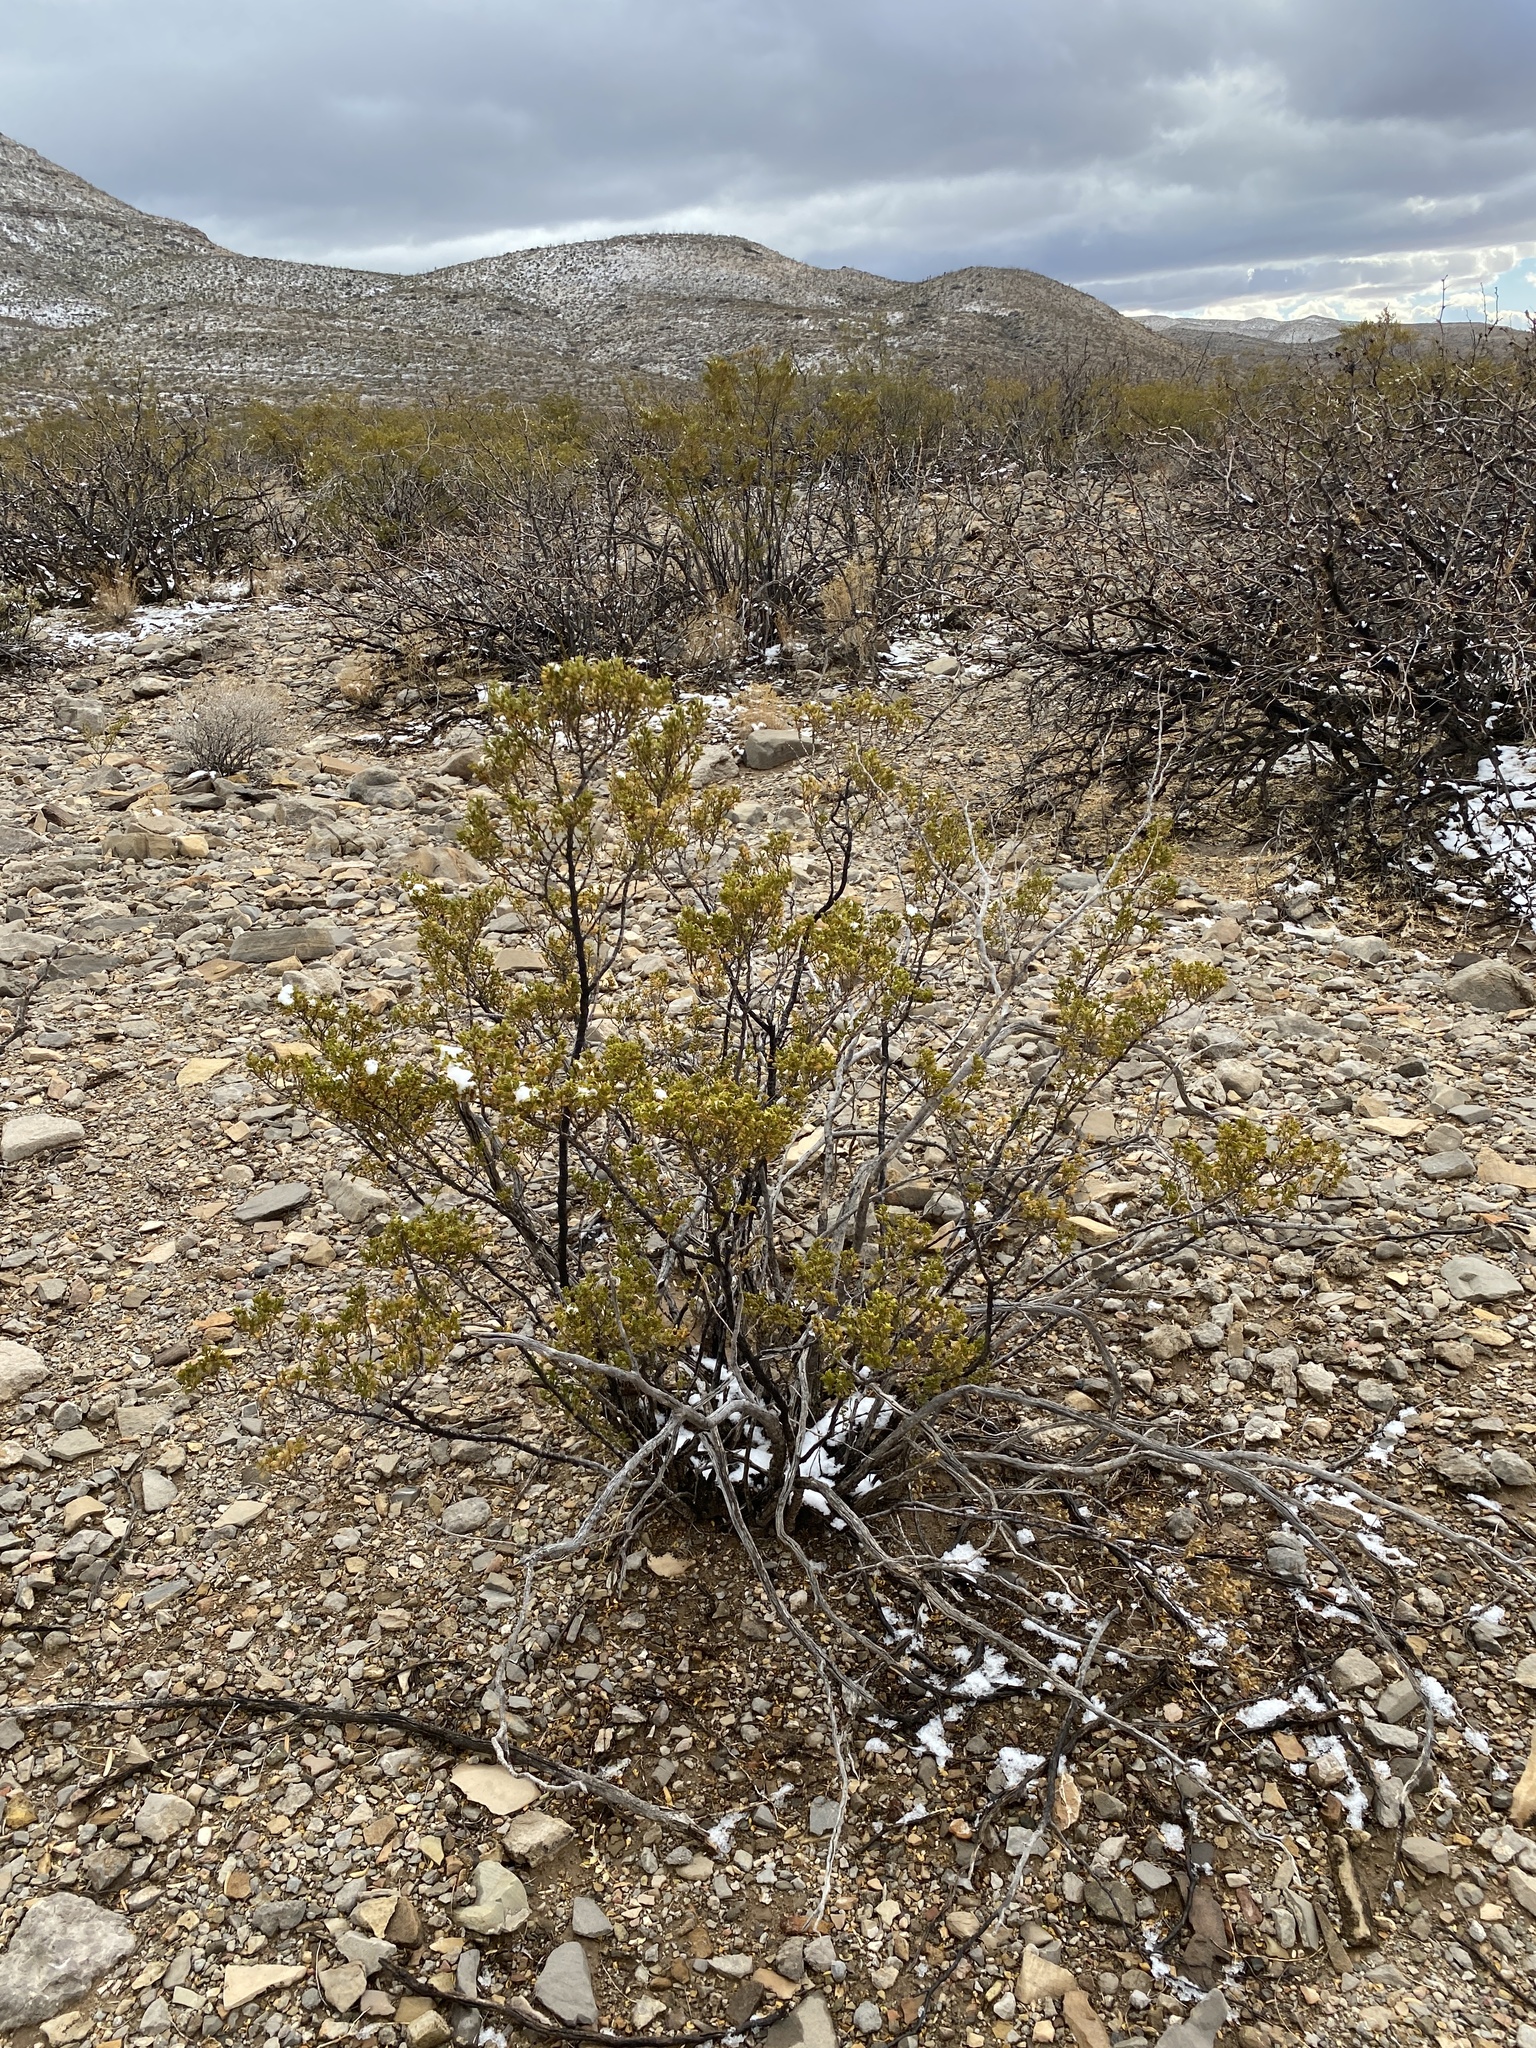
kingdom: Plantae
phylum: Tracheophyta
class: Magnoliopsida
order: Zygophyllales
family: Zygophyllaceae
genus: Larrea
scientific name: Larrea tridentata
